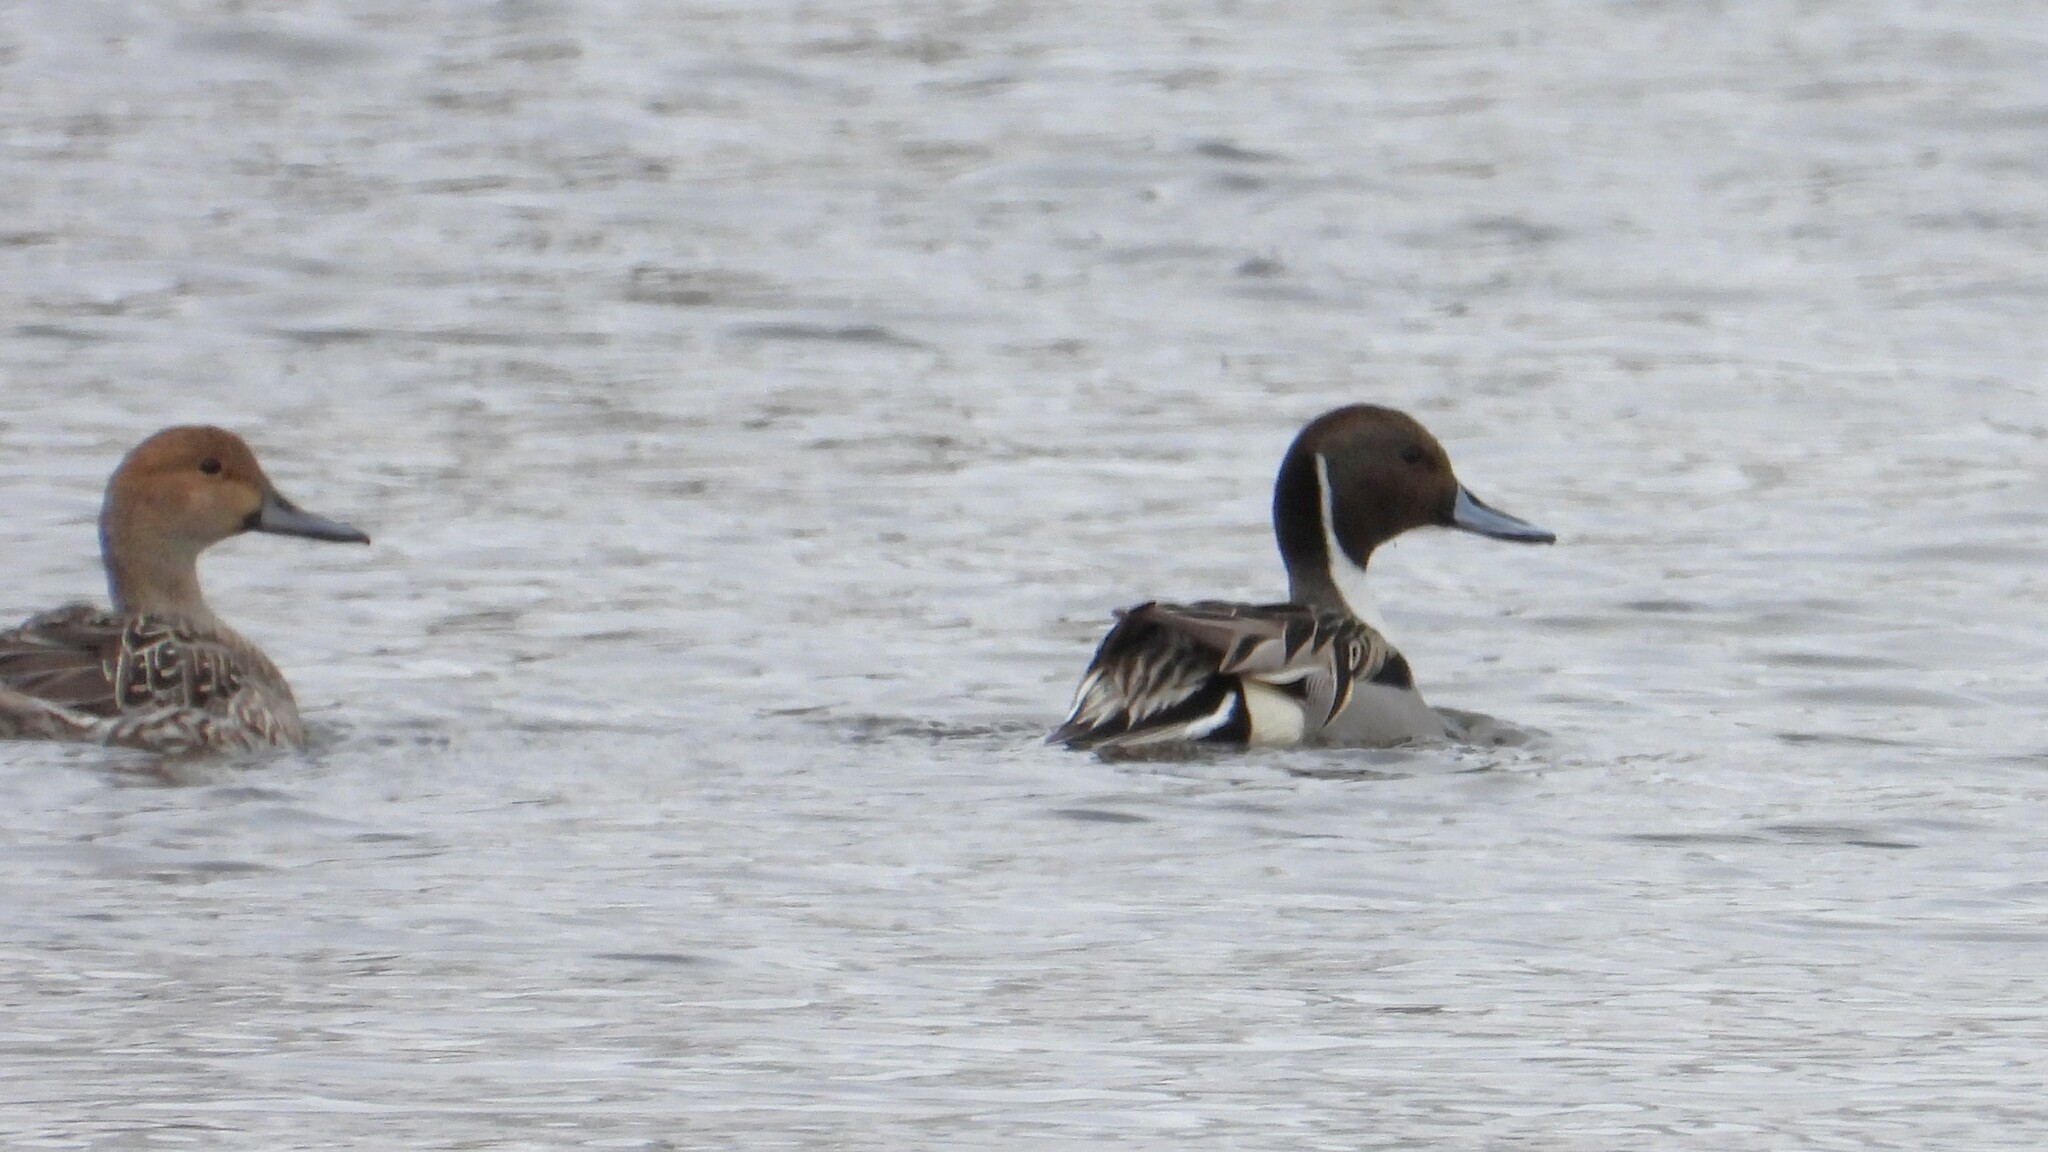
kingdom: Animalia
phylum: Chordata
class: Aves
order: Anseriformes
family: Anatidae
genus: Anas
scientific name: Anas acuta
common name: Northern pintail
